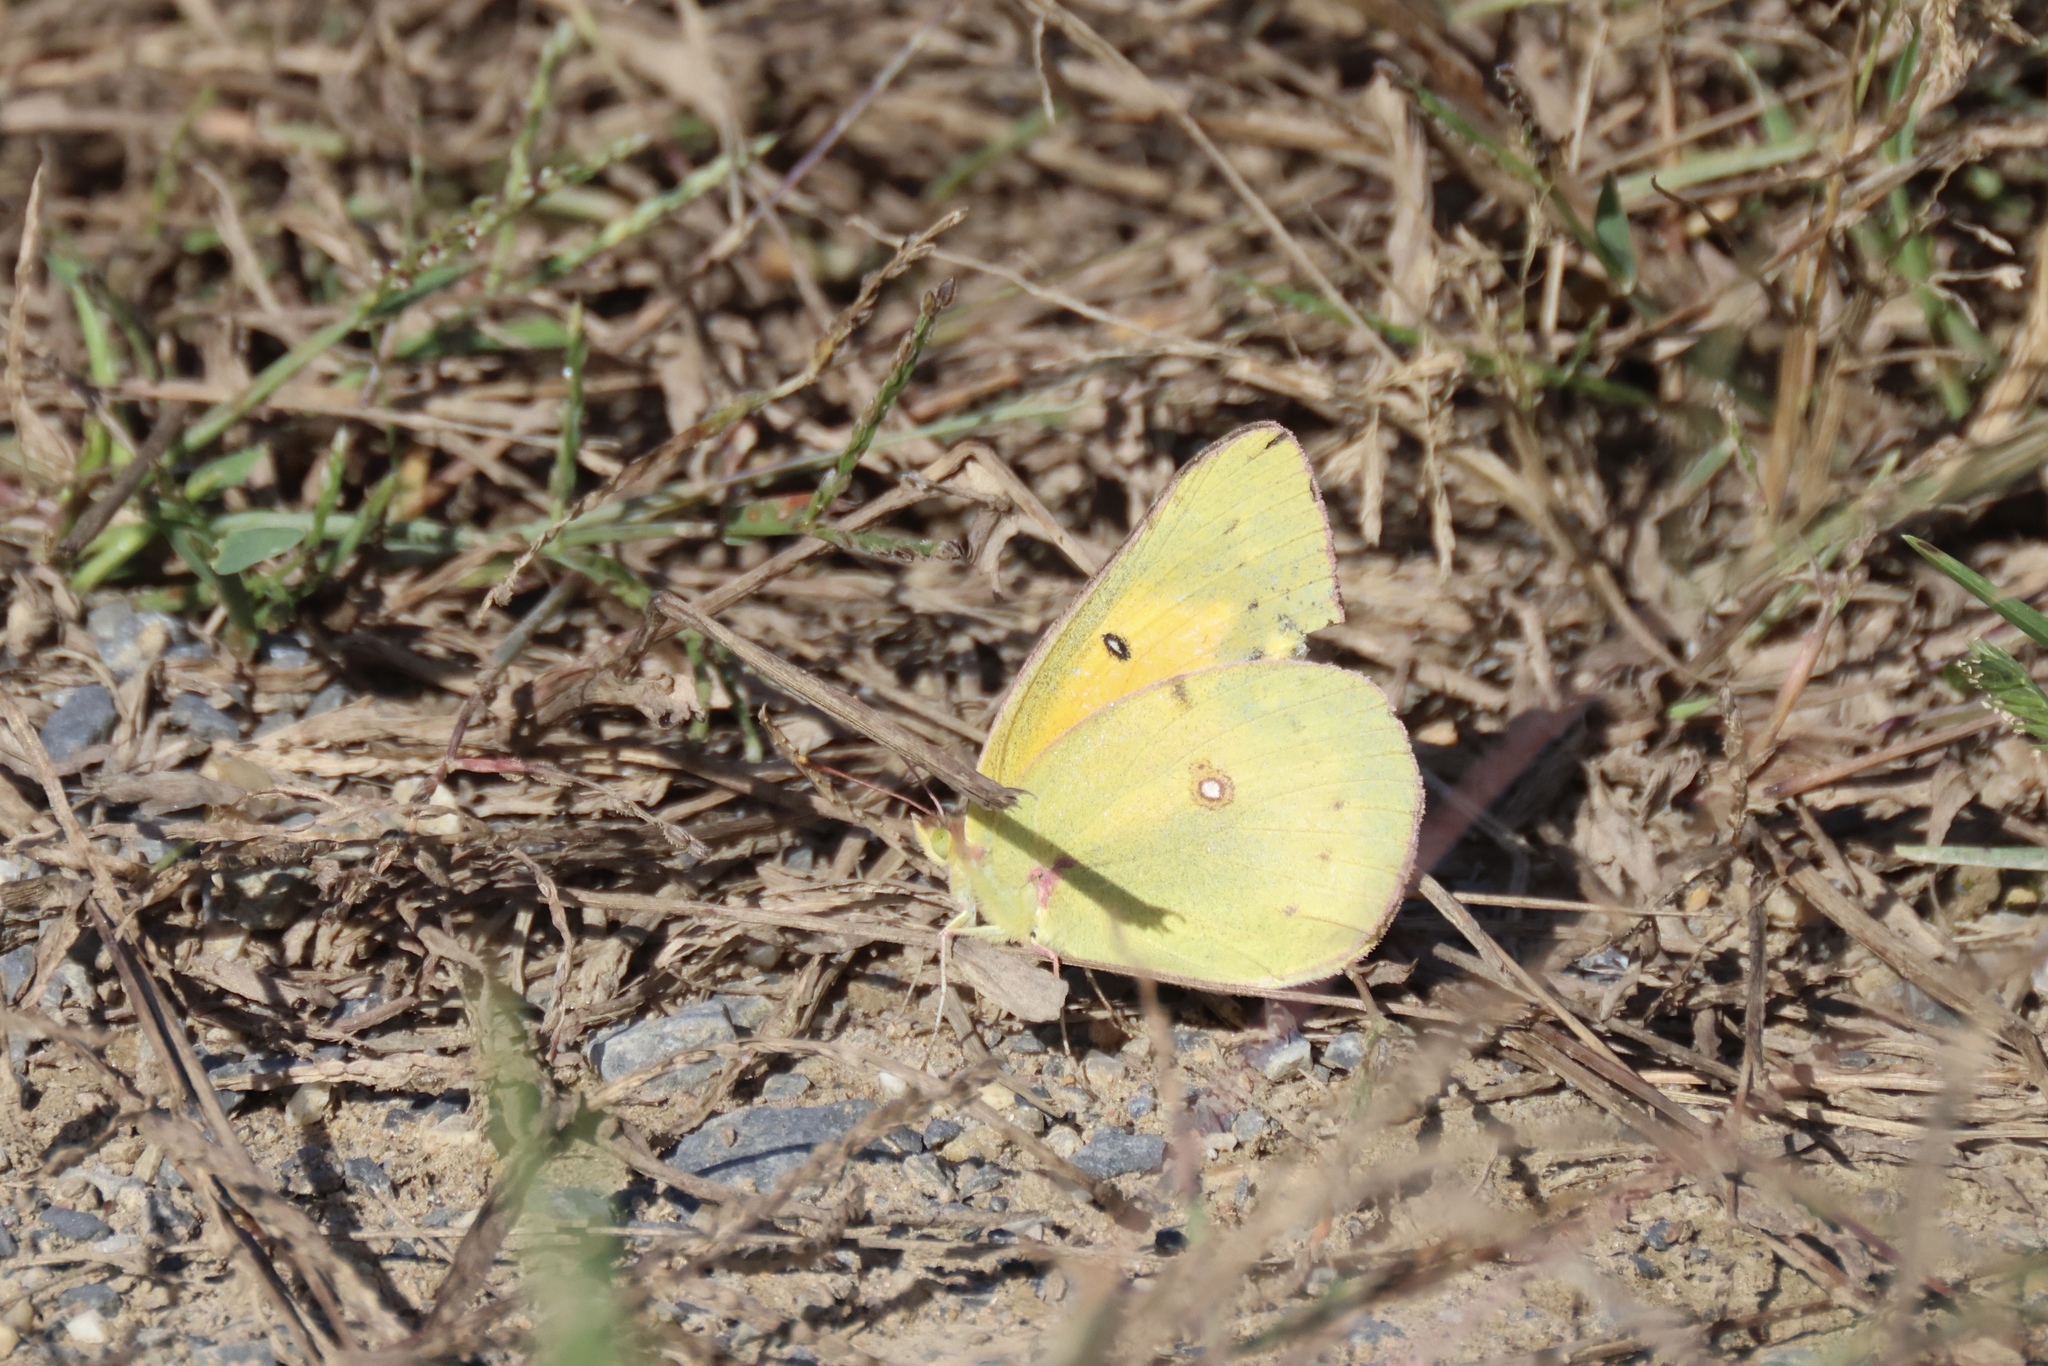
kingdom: Animalia
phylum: Arthropoda
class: Insecta
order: Lepidoptera
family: Pieridae
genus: Colias
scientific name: Colias eurytheme
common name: Alfalfa butterfly
